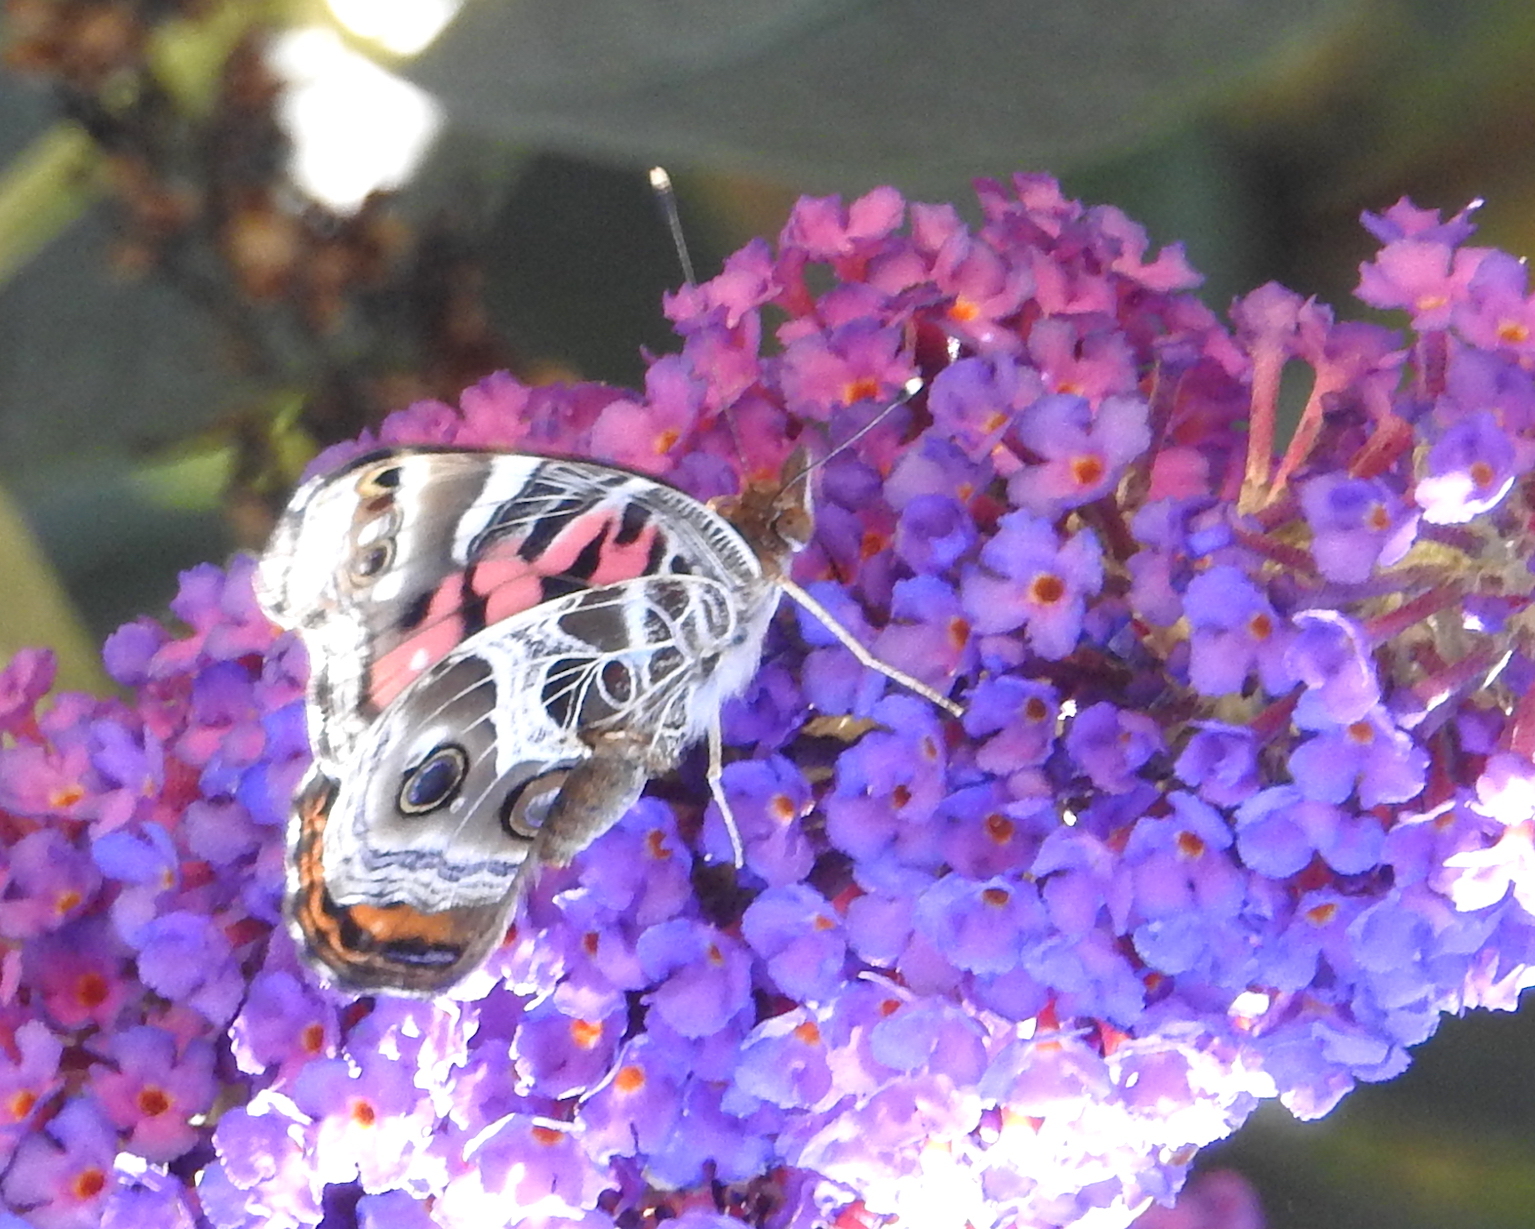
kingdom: Animalia
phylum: Arthropoda
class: Insecta
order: Lepidoptera
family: Nymphalidae
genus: Vanessa
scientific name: Vanessa virginiensis
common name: American lady
